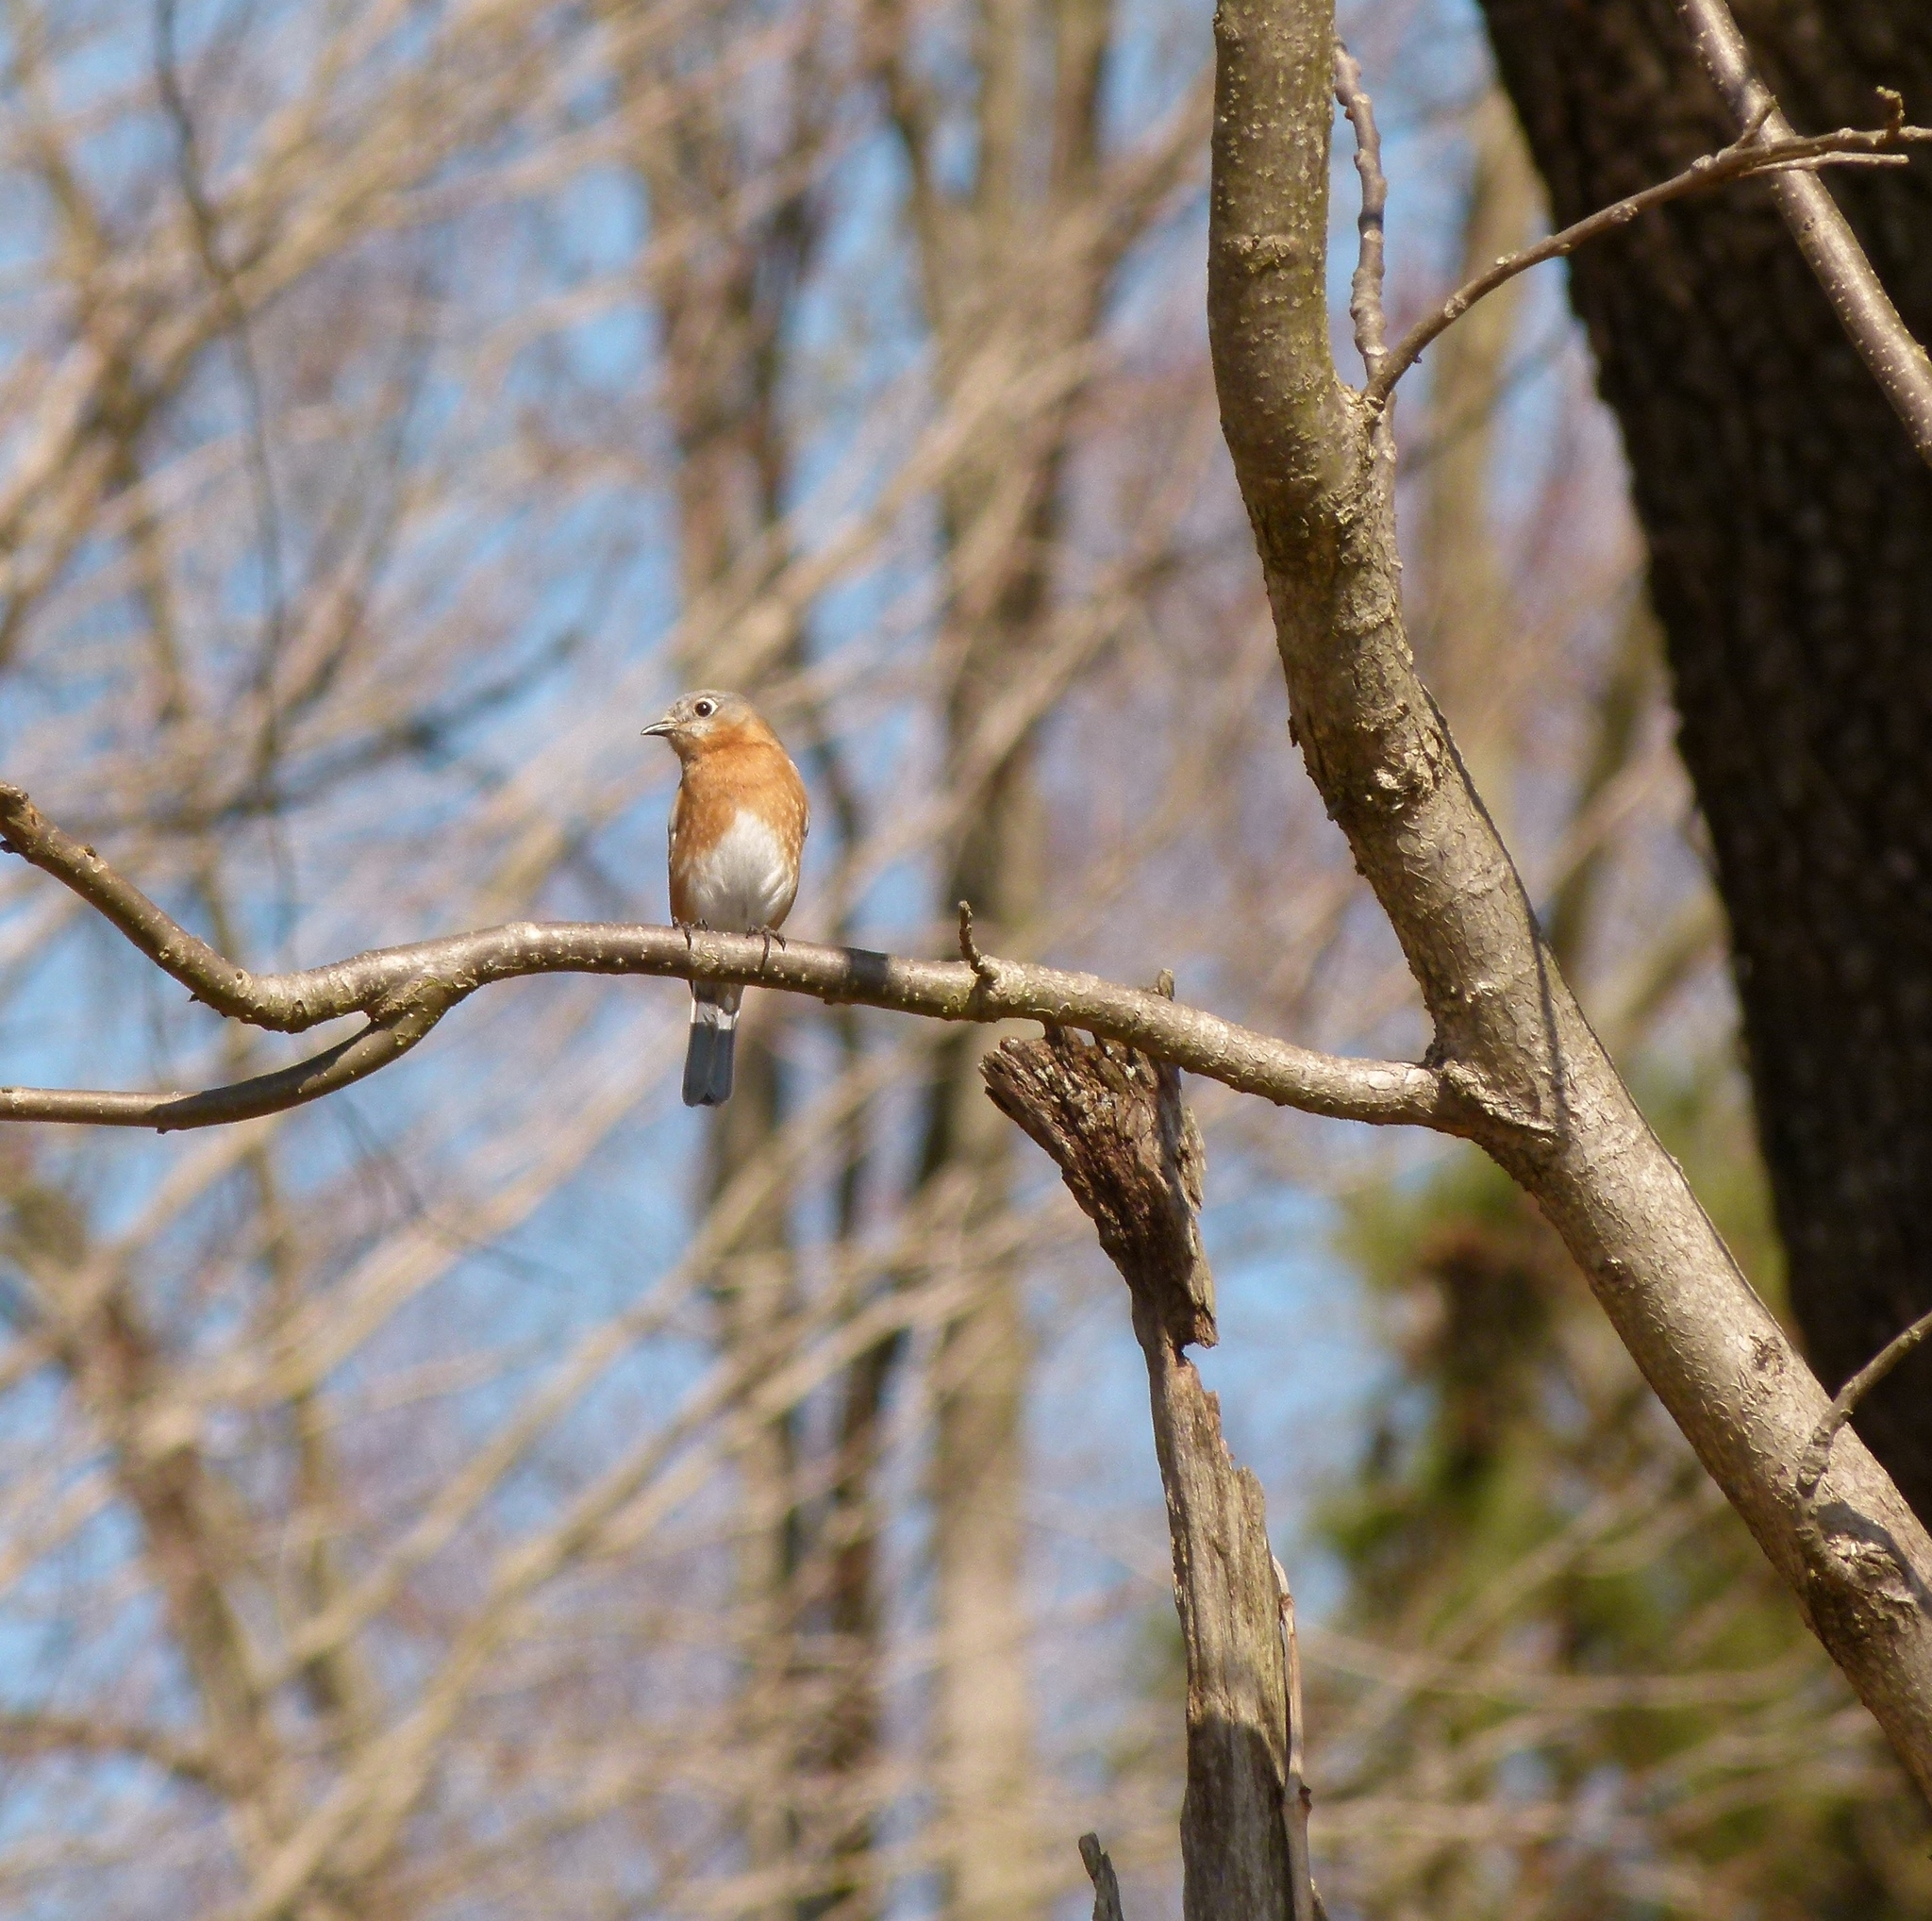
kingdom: Animalia
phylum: Chordata
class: Aves
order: Passeriformes
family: Turdidae
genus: Sialia
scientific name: Sialia sialis
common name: Eastern bluebird
